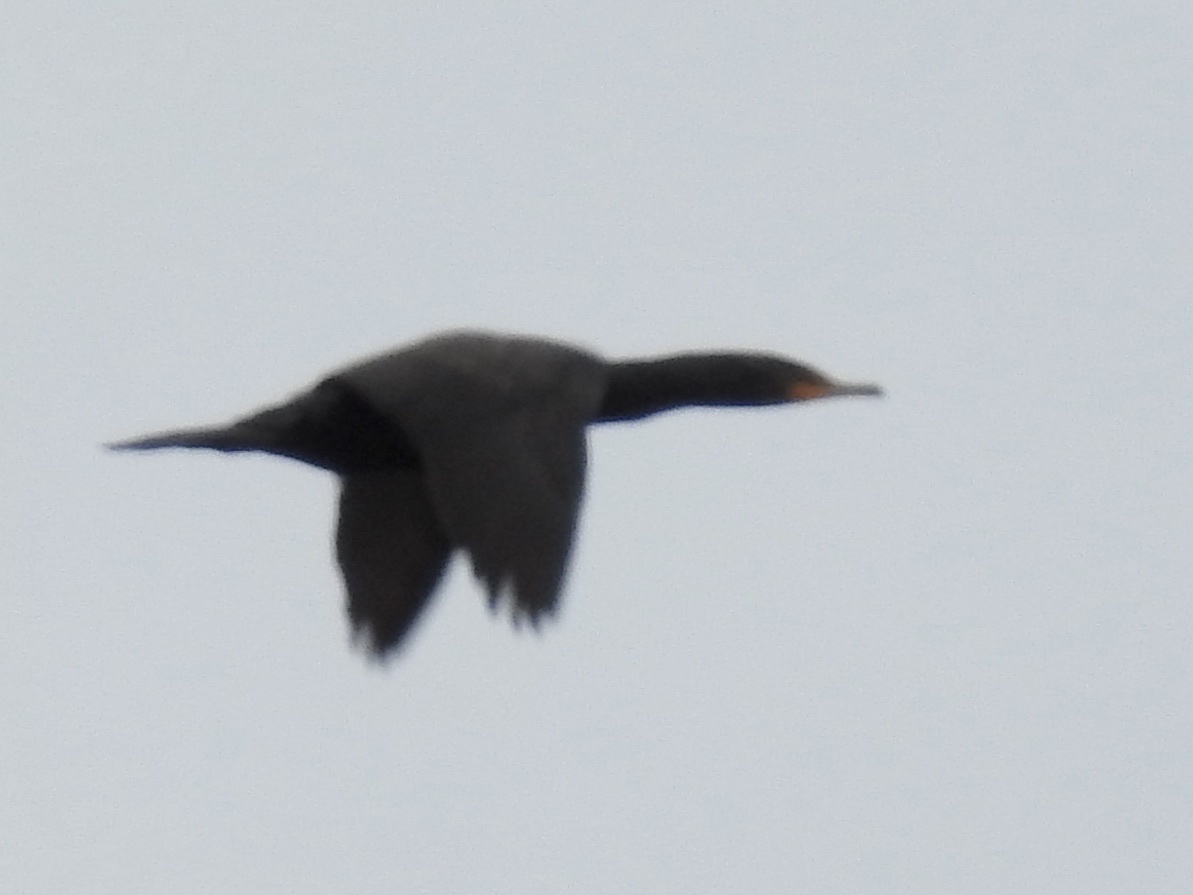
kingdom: Animalia
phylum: Chordata
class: Aves
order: Suliformes
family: Phalacrocoracidae
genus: Phalacrocorax
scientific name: Phalacrocorax auritus
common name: Double-crested cormorant
